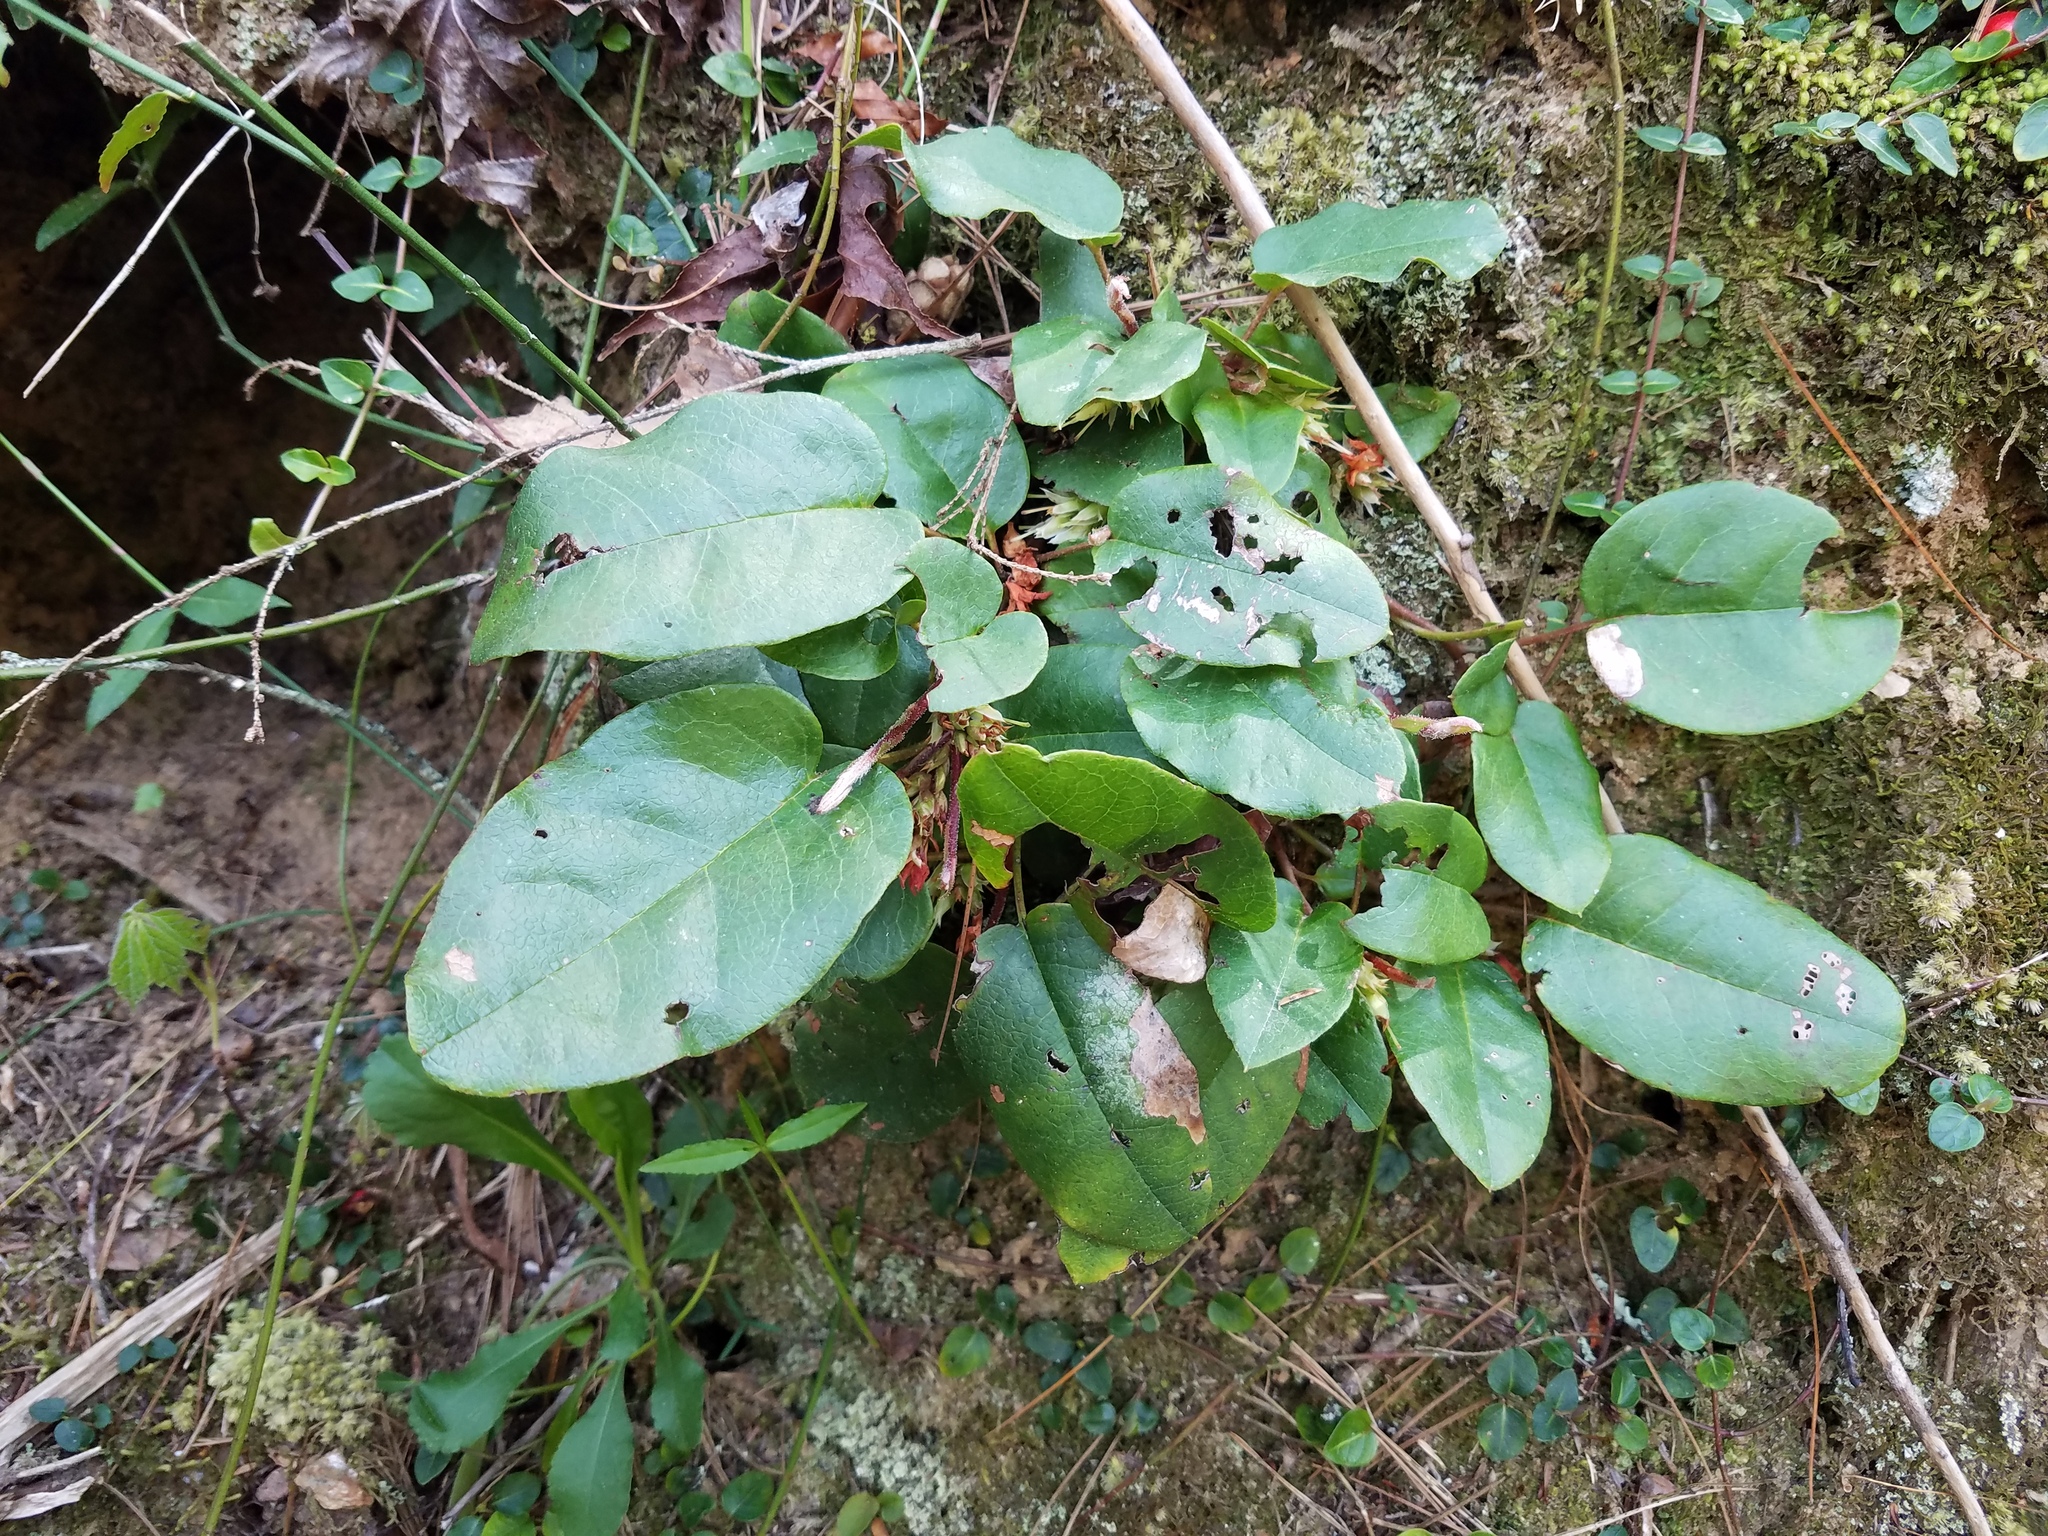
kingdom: Plantae
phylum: Tracheophyta
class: Magnoliopsida
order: Ericales
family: Ericaceae
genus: Epigaea
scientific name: Epigaea repens
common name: Gravelroot
